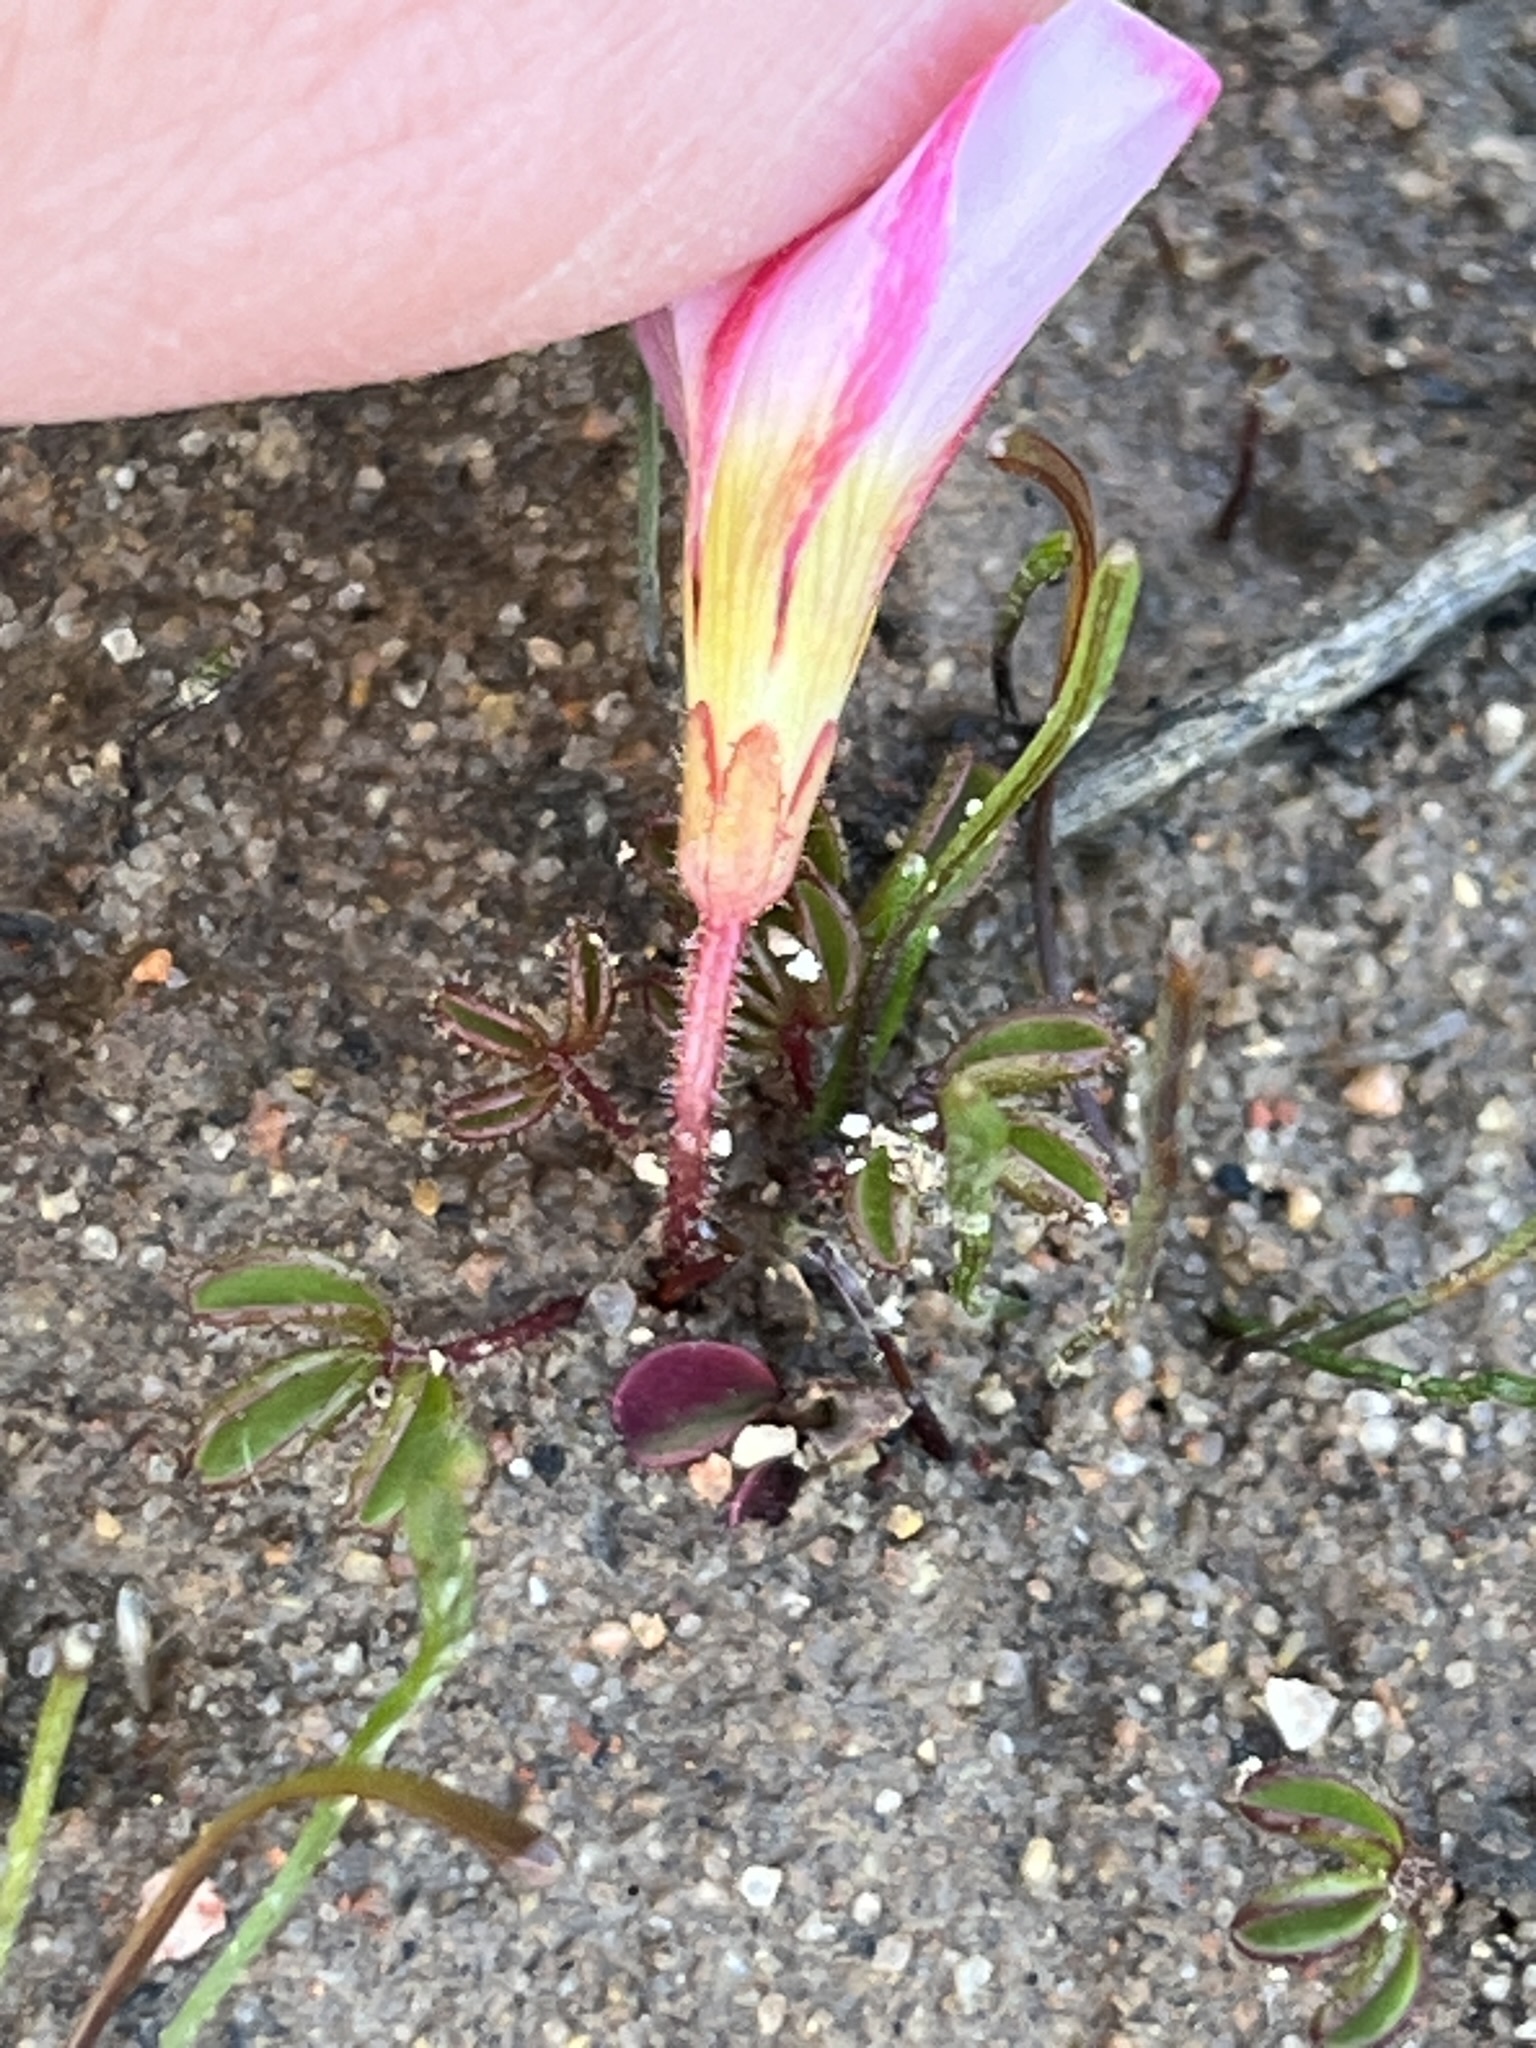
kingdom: Plantae
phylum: Tracheophyta
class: Magnoliopsida
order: Oxalidales
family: Oxalidaceae
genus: Oxalis
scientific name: Oxalis amblyosepala
